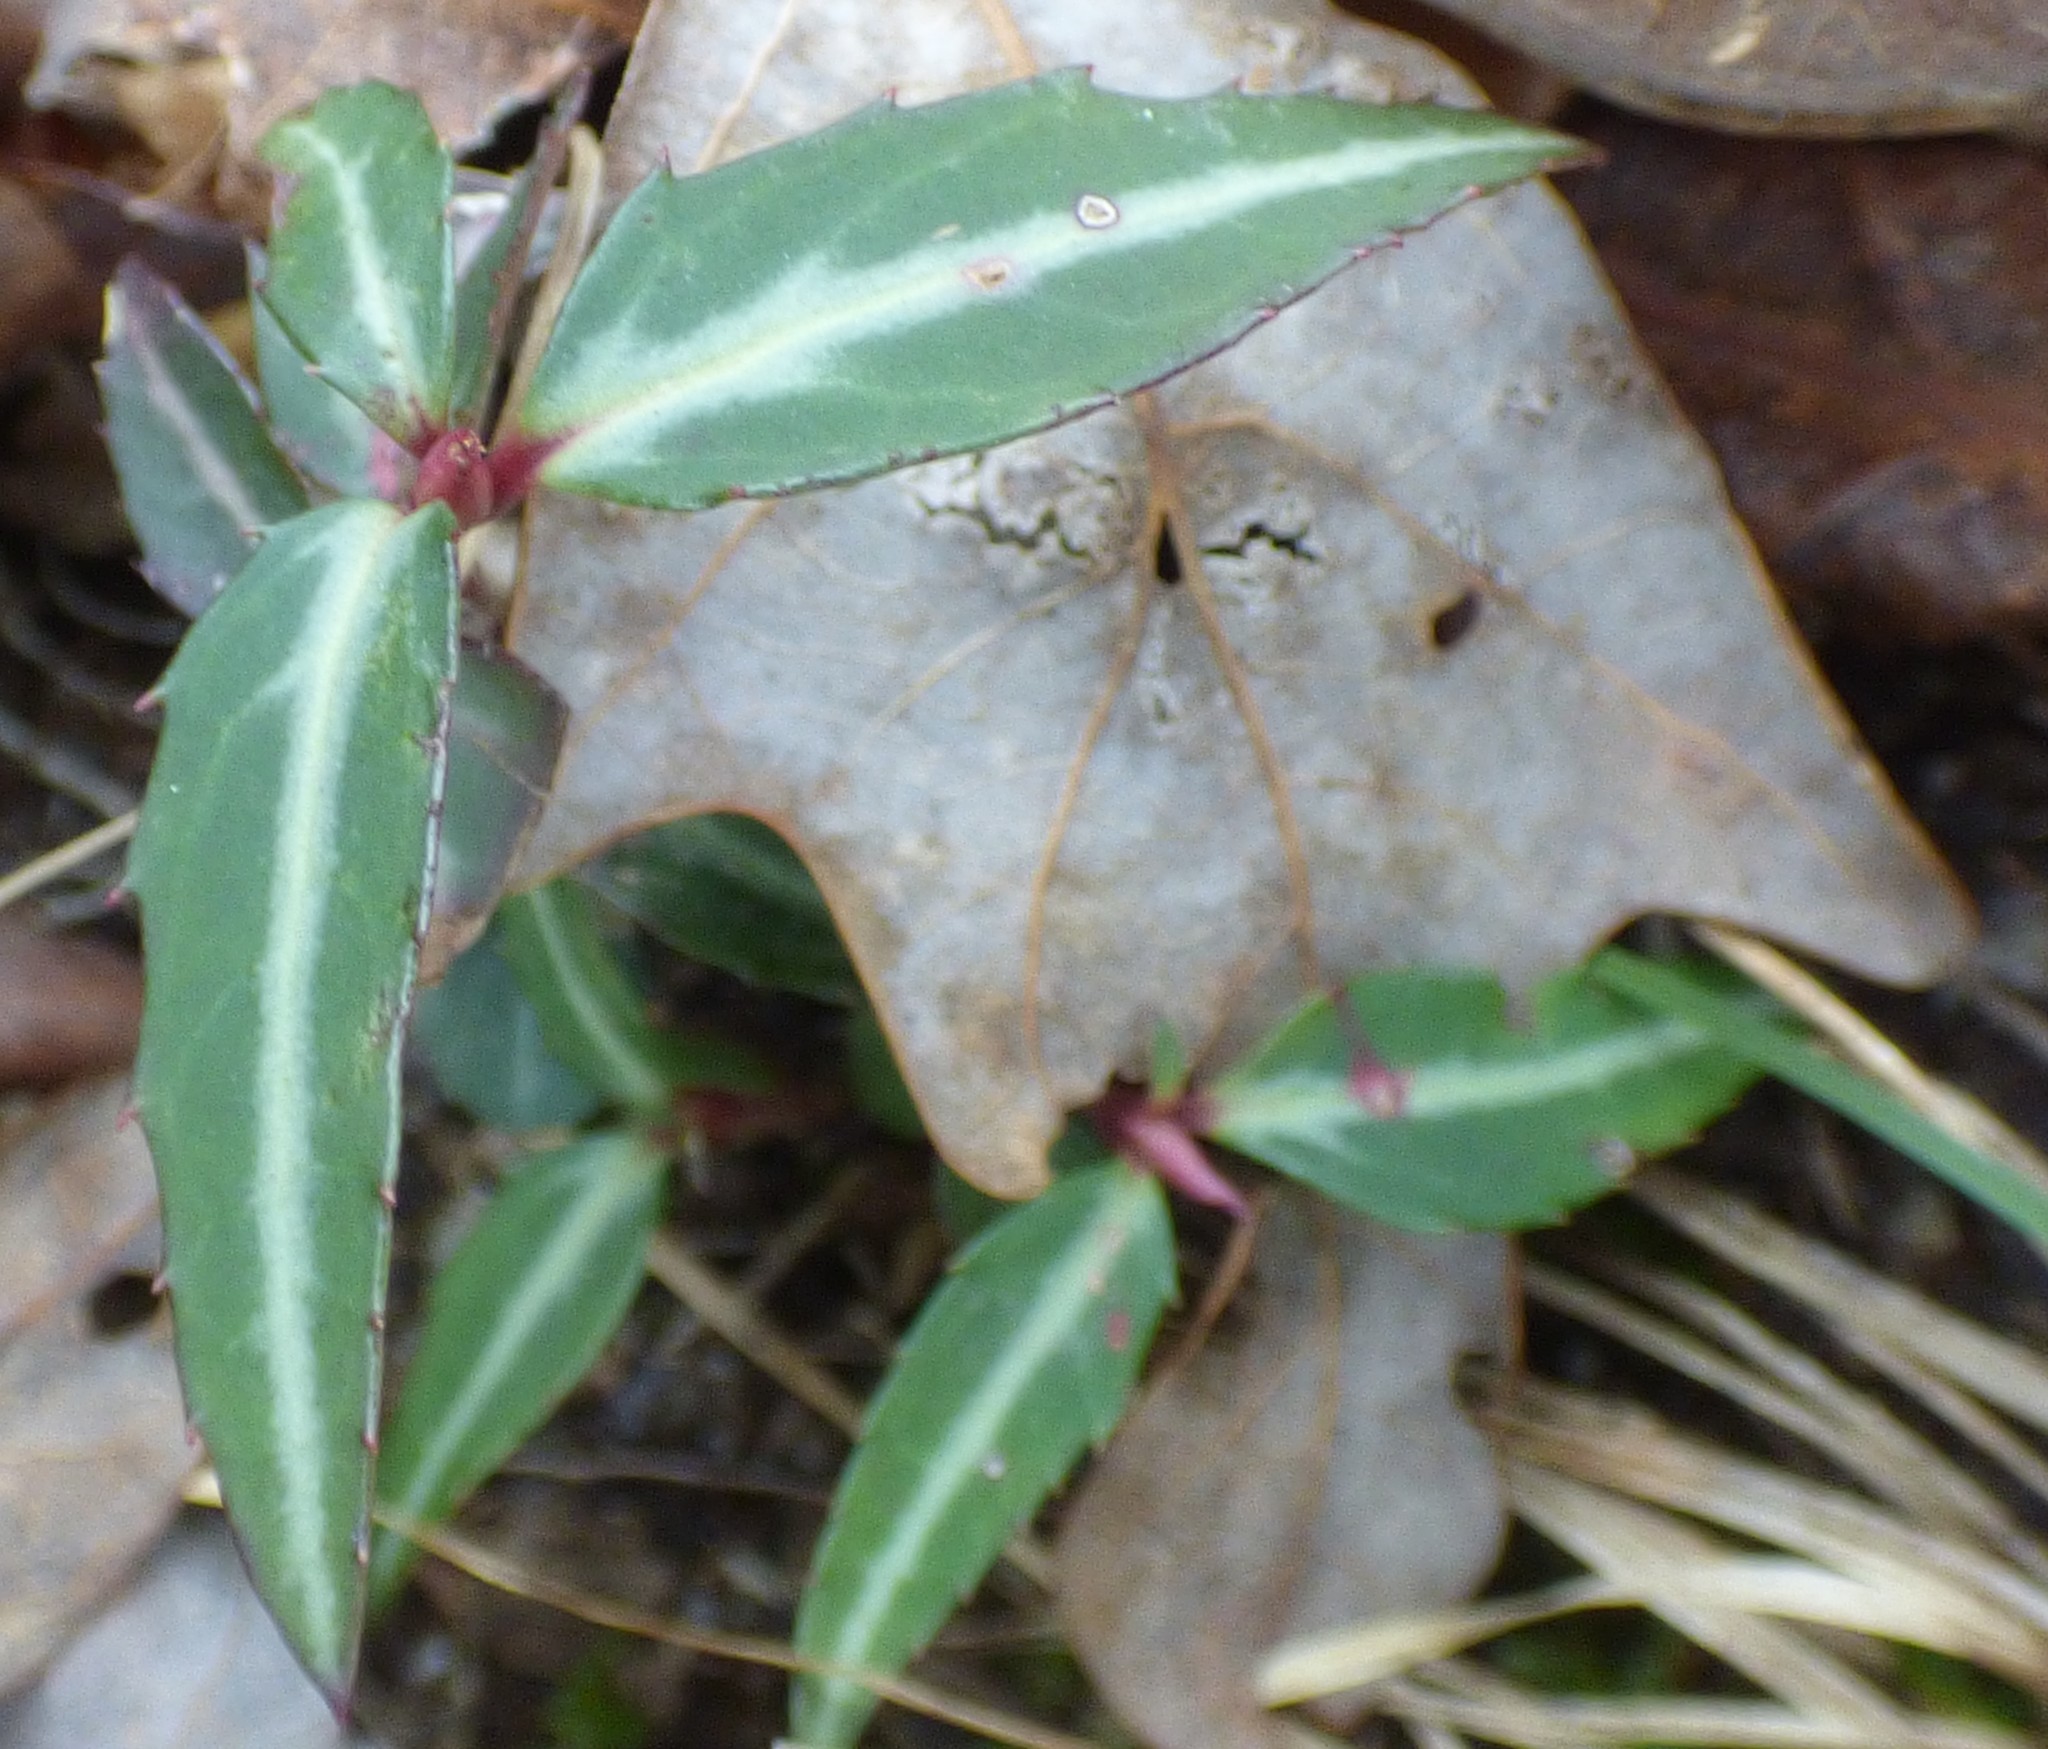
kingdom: Plantae
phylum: Tracheophyta
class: Magnoliopsida
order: Ericales
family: Ericaceae
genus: Chimaphila
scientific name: Chimaphila maculata
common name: Spotted pipsissewa
